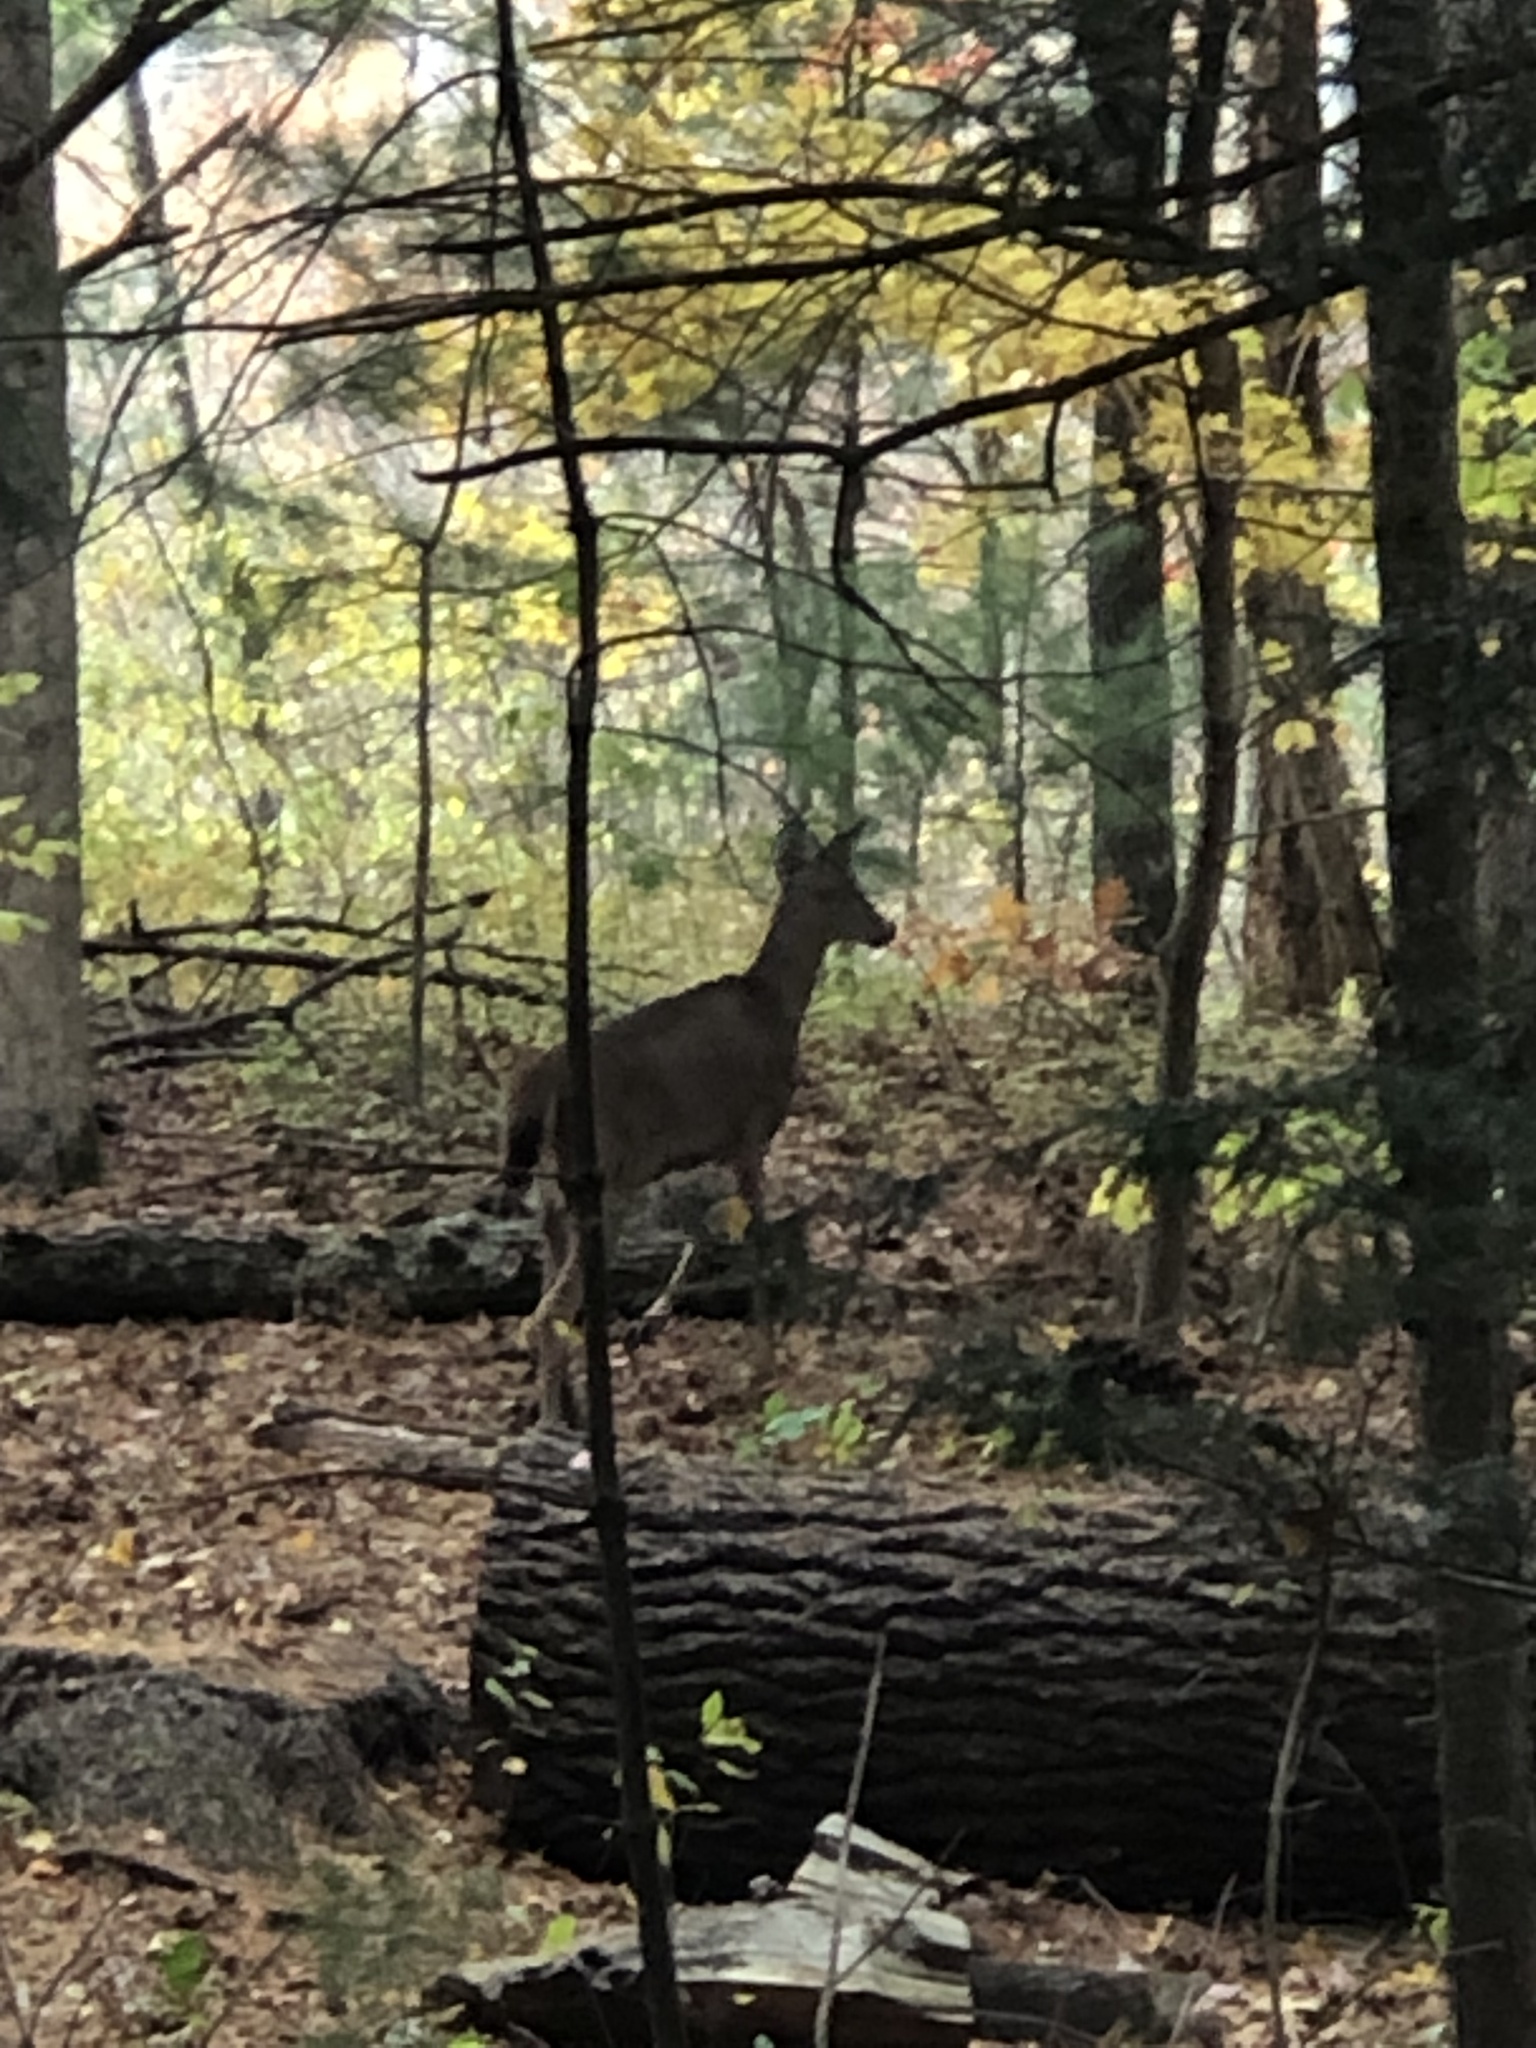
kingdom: Animalia
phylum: Chordata
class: Mammalia
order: Artiodactyla
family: Cervidae
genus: Odocoileus
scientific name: Odocoileus virginianus
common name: White-tailed deer
